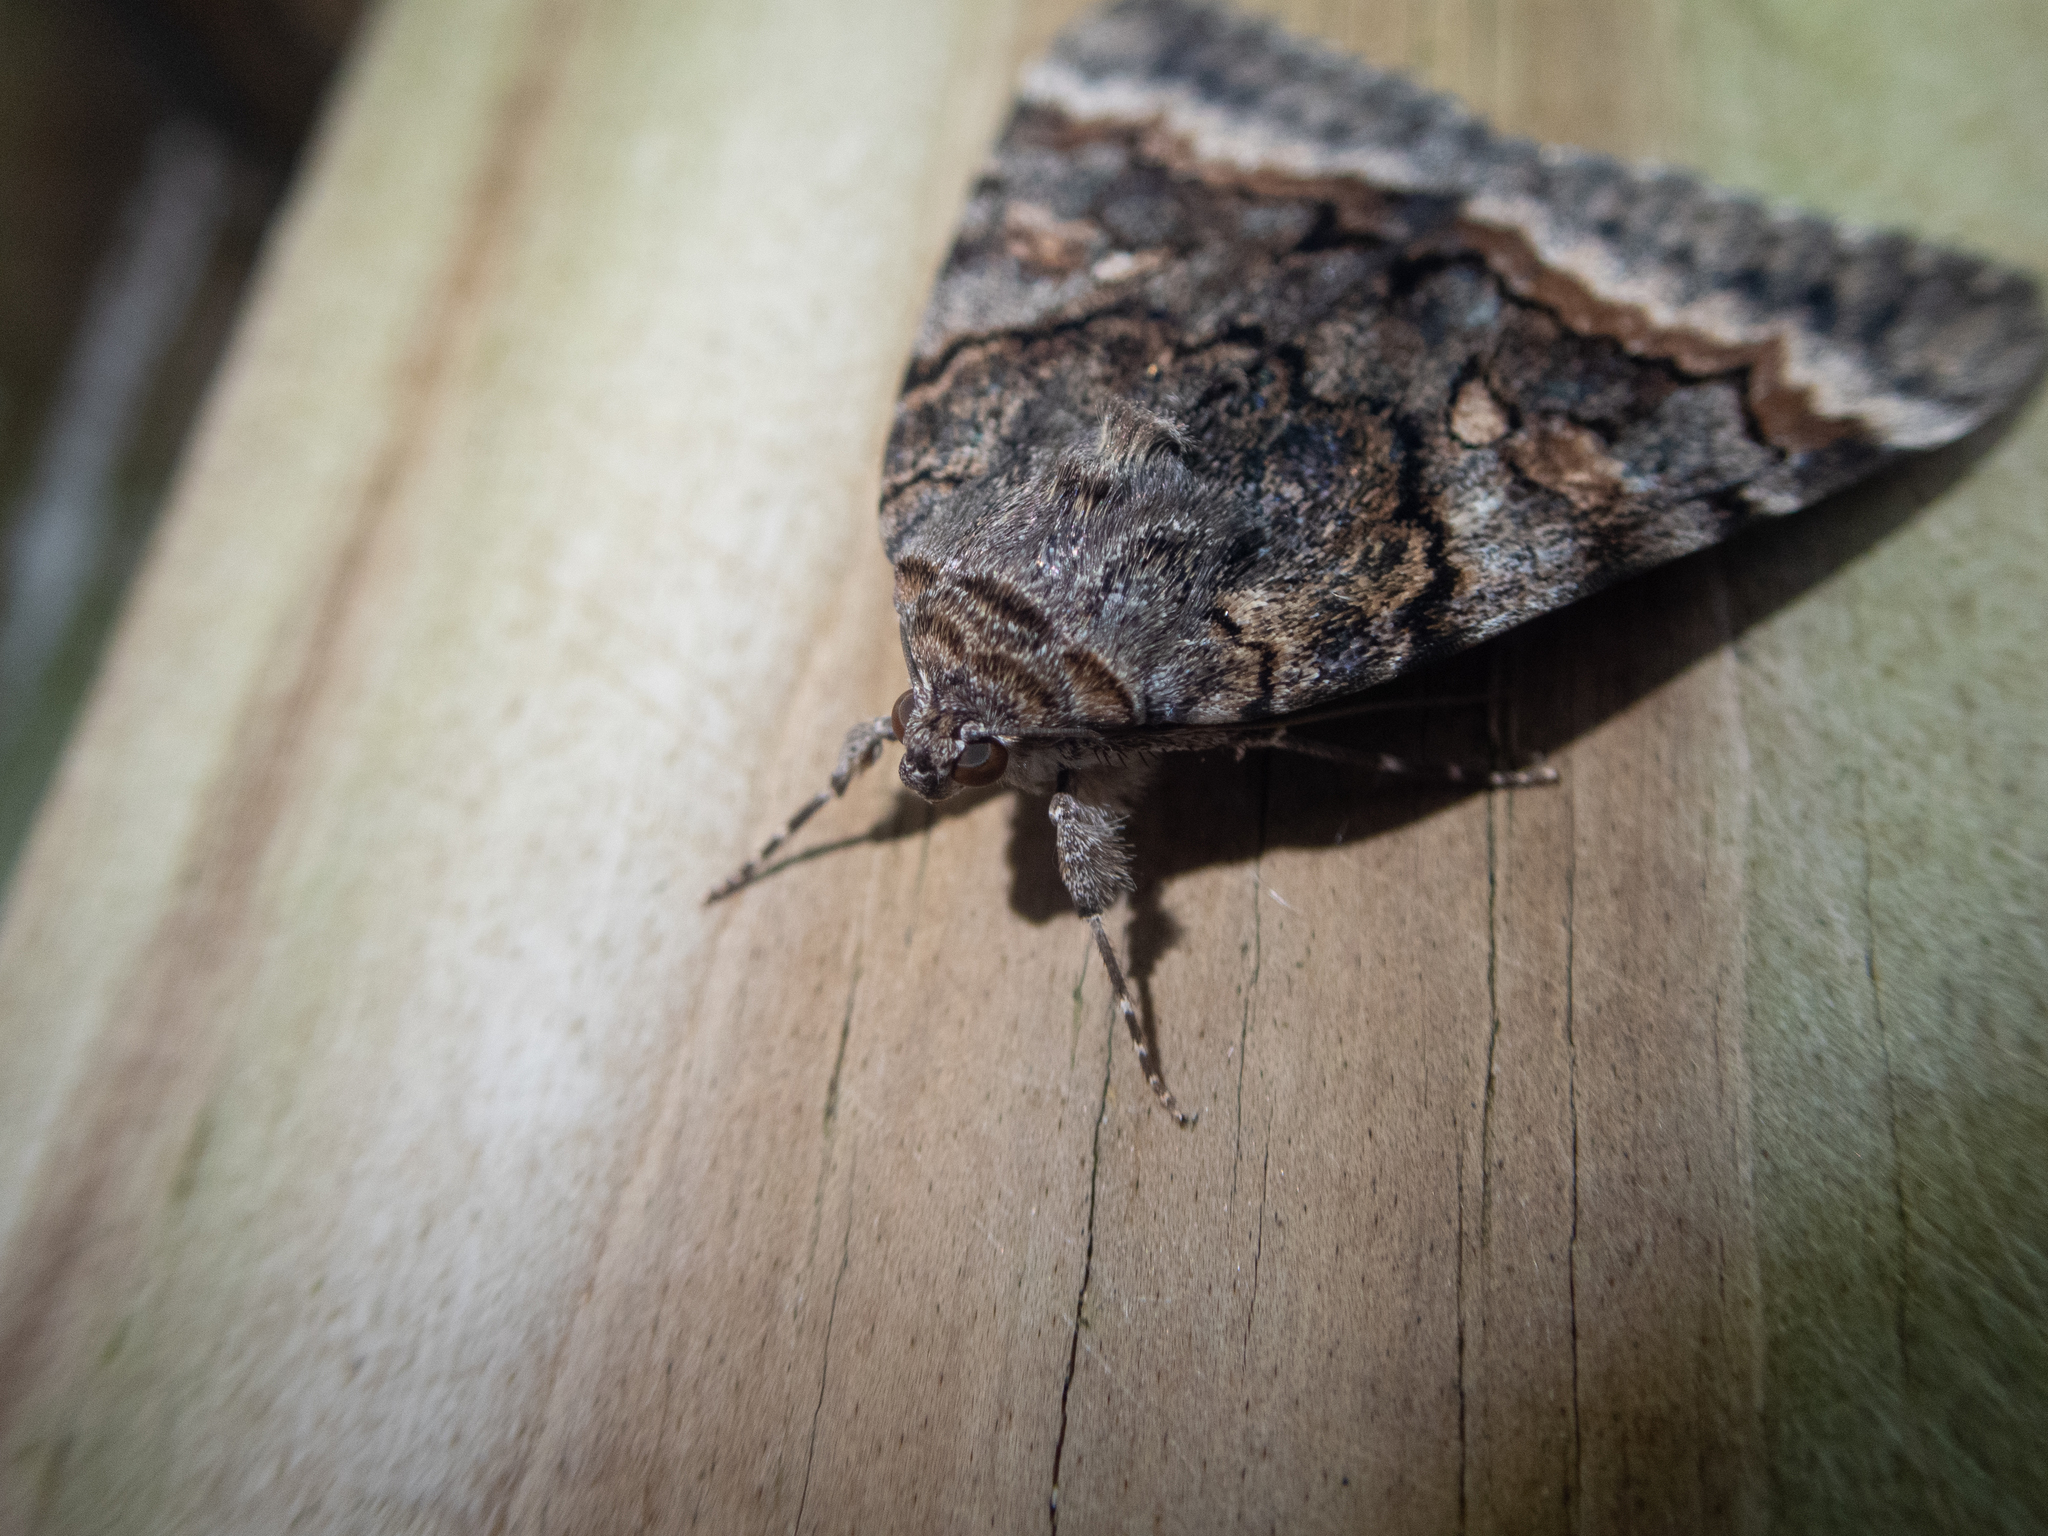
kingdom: Animalia
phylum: Arthropoda
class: Insecta
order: Lepidoptera
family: Erebidae
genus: Catocala
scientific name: Catocala epione
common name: Epione underwing
